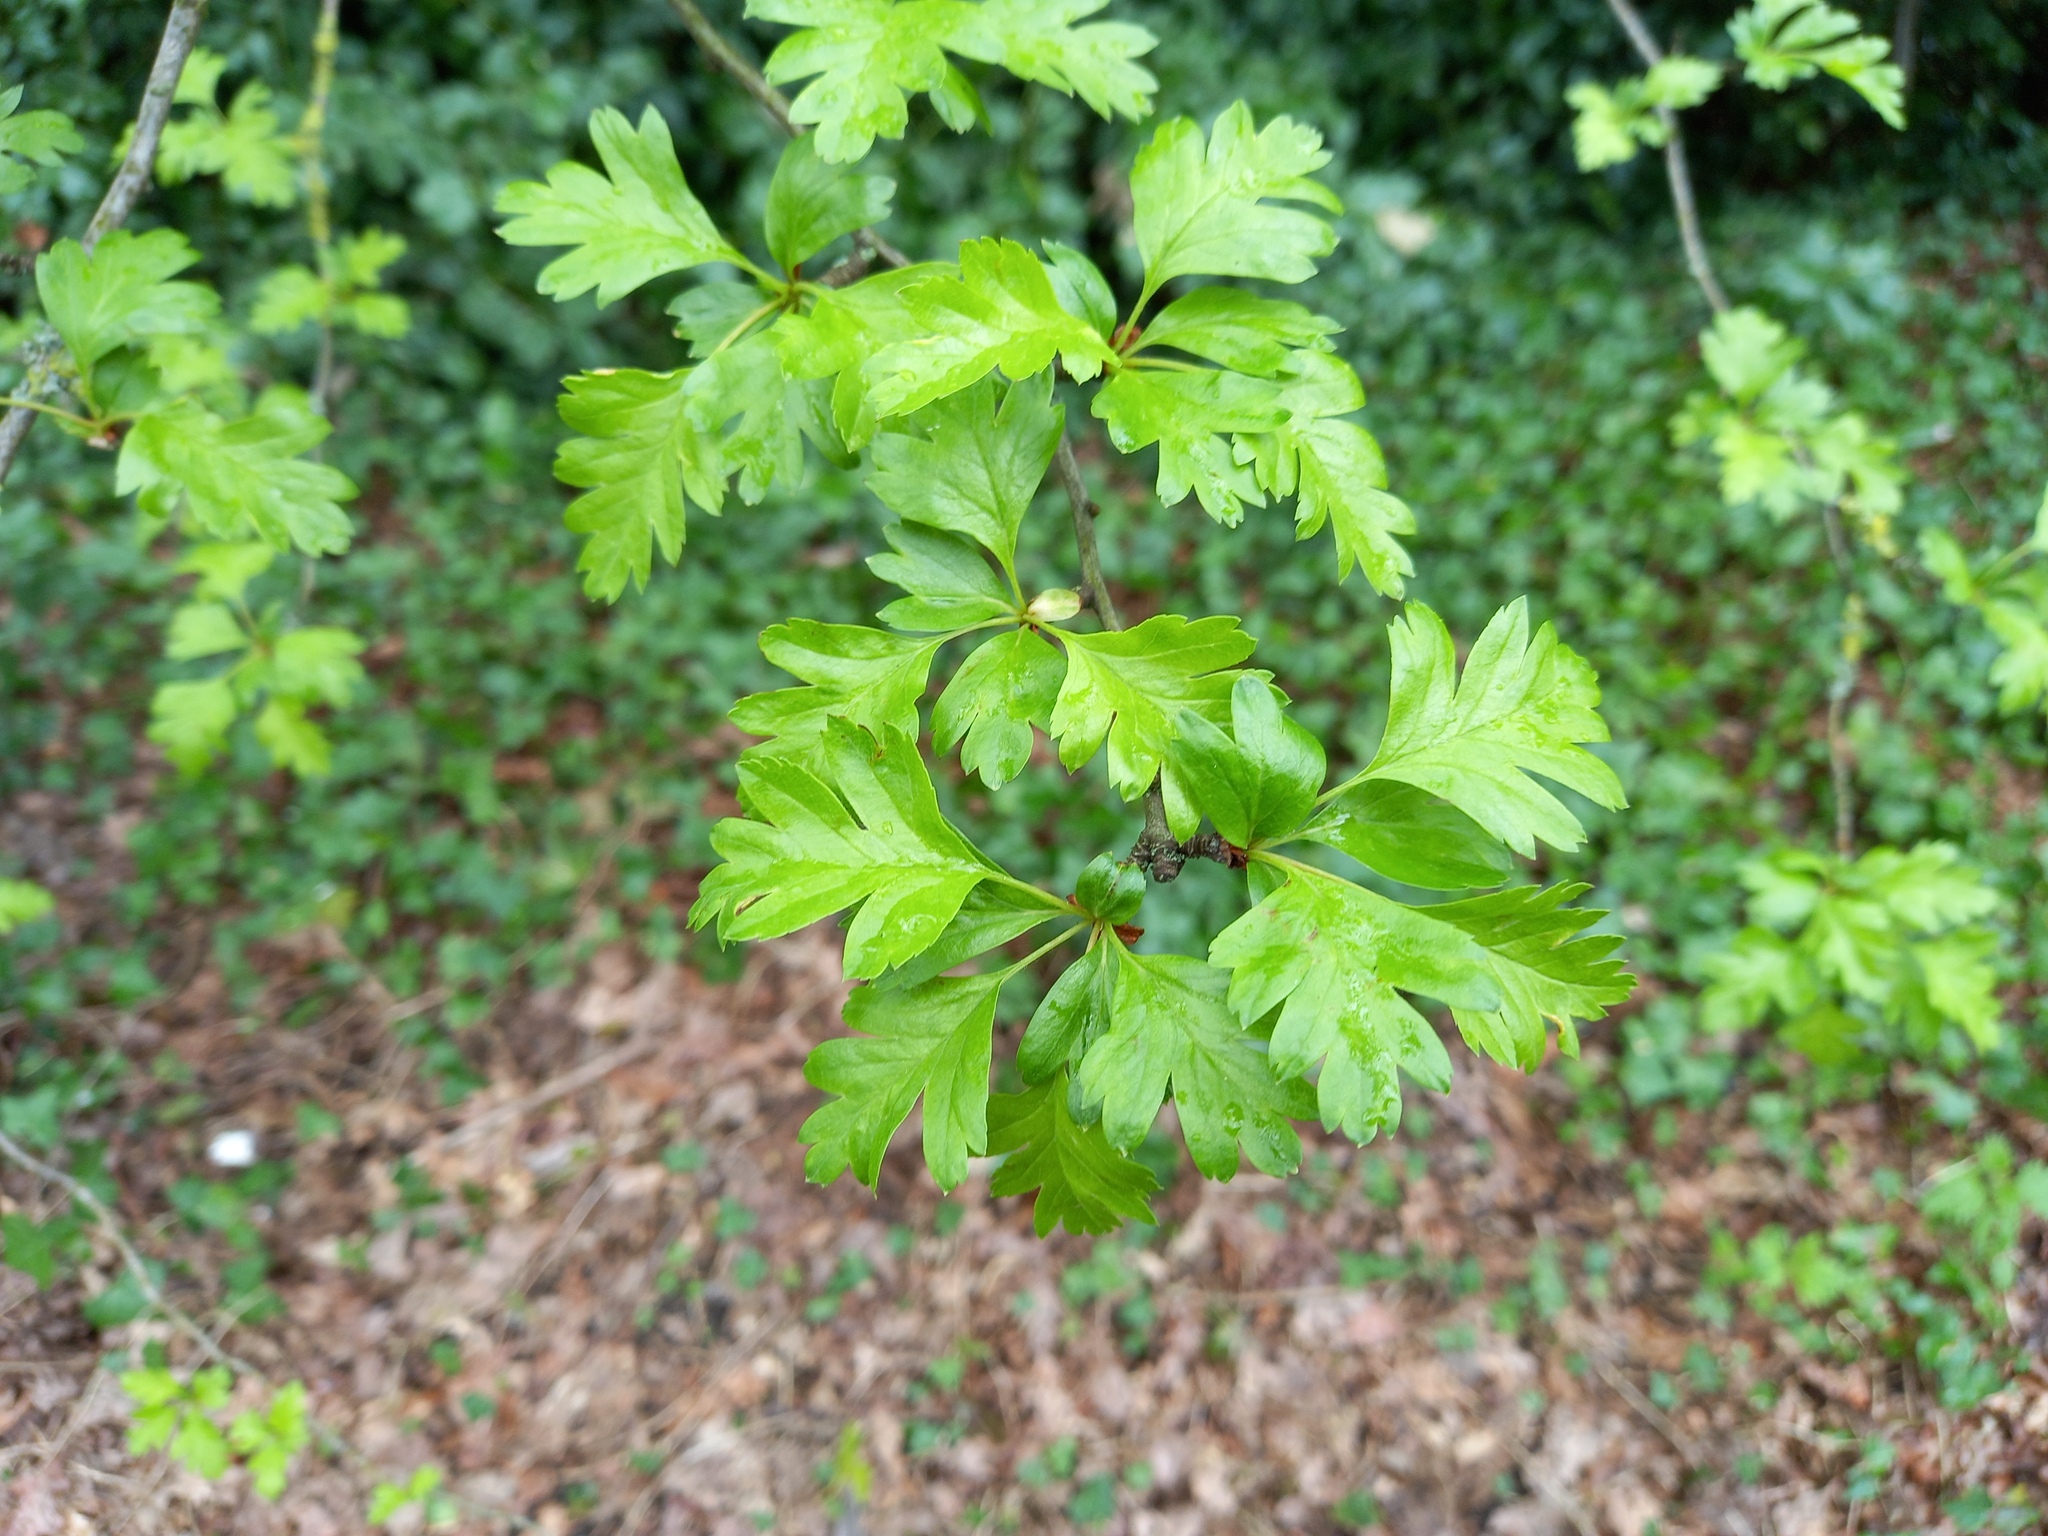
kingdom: Plantae
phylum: Tracheophyta
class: Magnoliopsida
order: Rosales
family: Rosaceae
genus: Crataegus
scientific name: Crataegus monogyna
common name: Hawthorn
